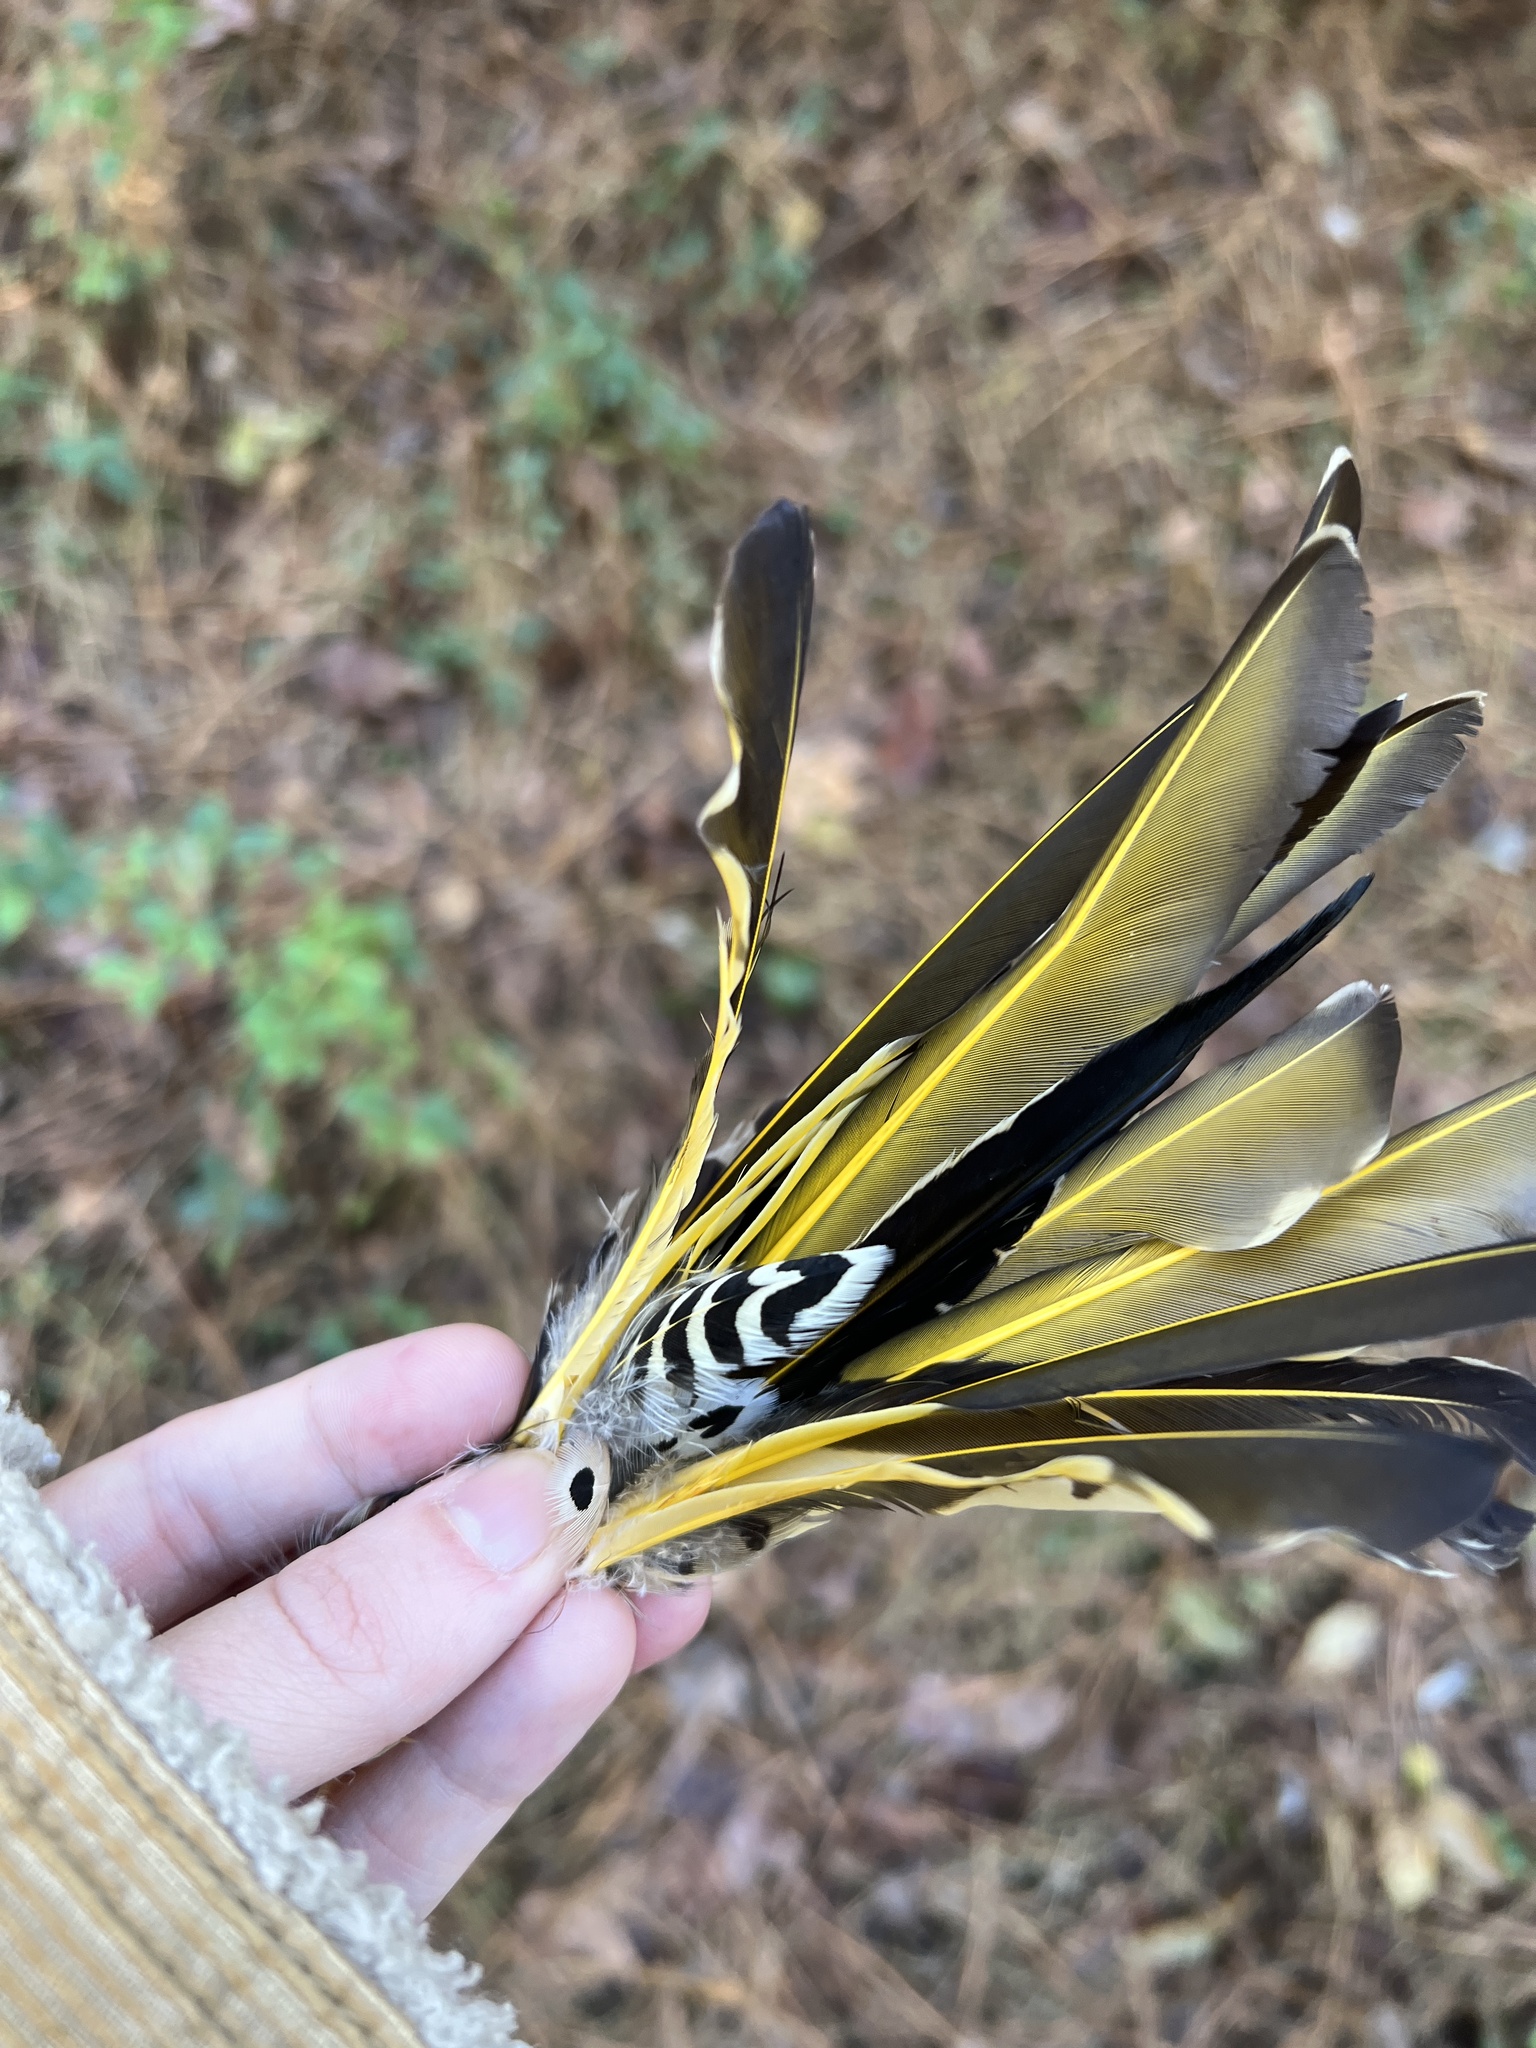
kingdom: Animalia
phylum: Chordata
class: Aves
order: Piciformes
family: Picidae
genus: Colaptes
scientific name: Colaptes auratus
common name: Northern flicker
